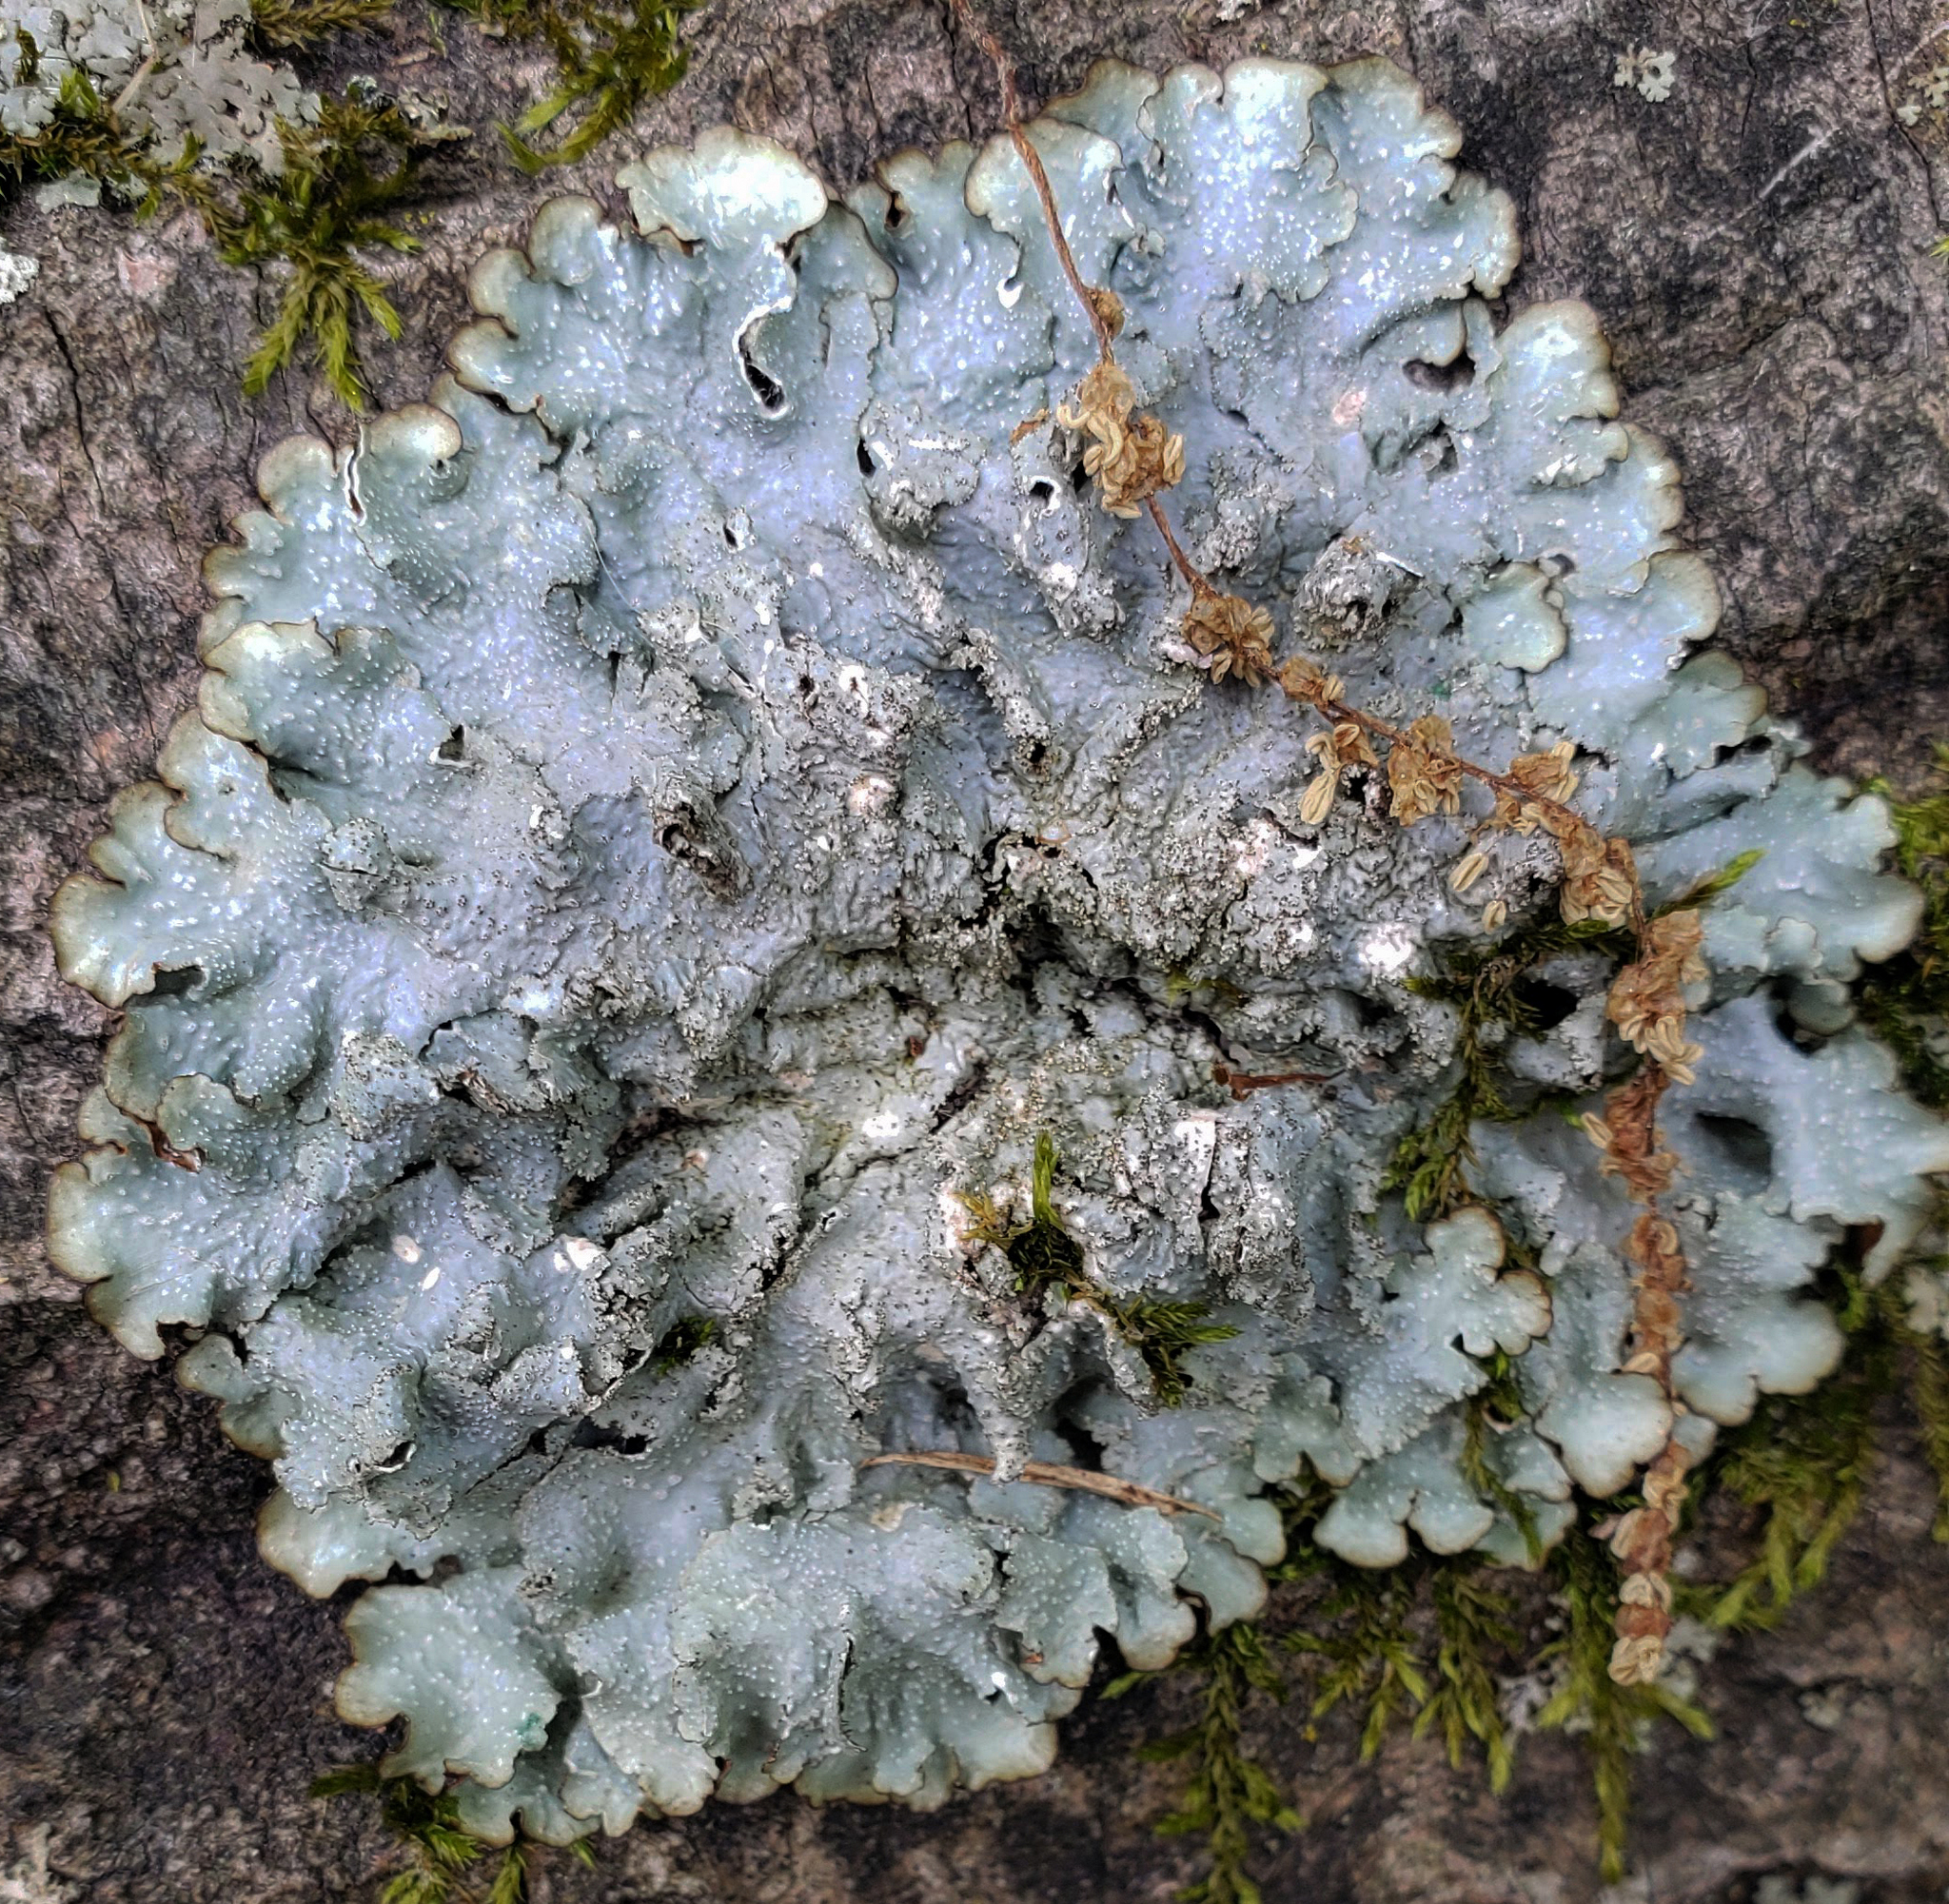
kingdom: Fungi
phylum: Ascomycota
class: Lecanoromycetes
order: Lecanorales
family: Parmeliaceae
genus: Punctelia
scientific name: Punctelia rudecta
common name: Rough speckled shield lichen
